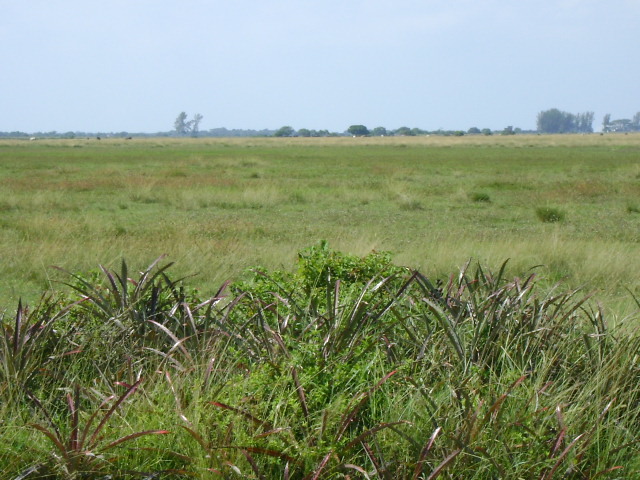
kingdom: Plantae
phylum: Tracheophyta
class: Liliopsida
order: Poales
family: Bromeliaceae
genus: Bromelia
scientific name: Bromelia pinguin
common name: Pinguin
